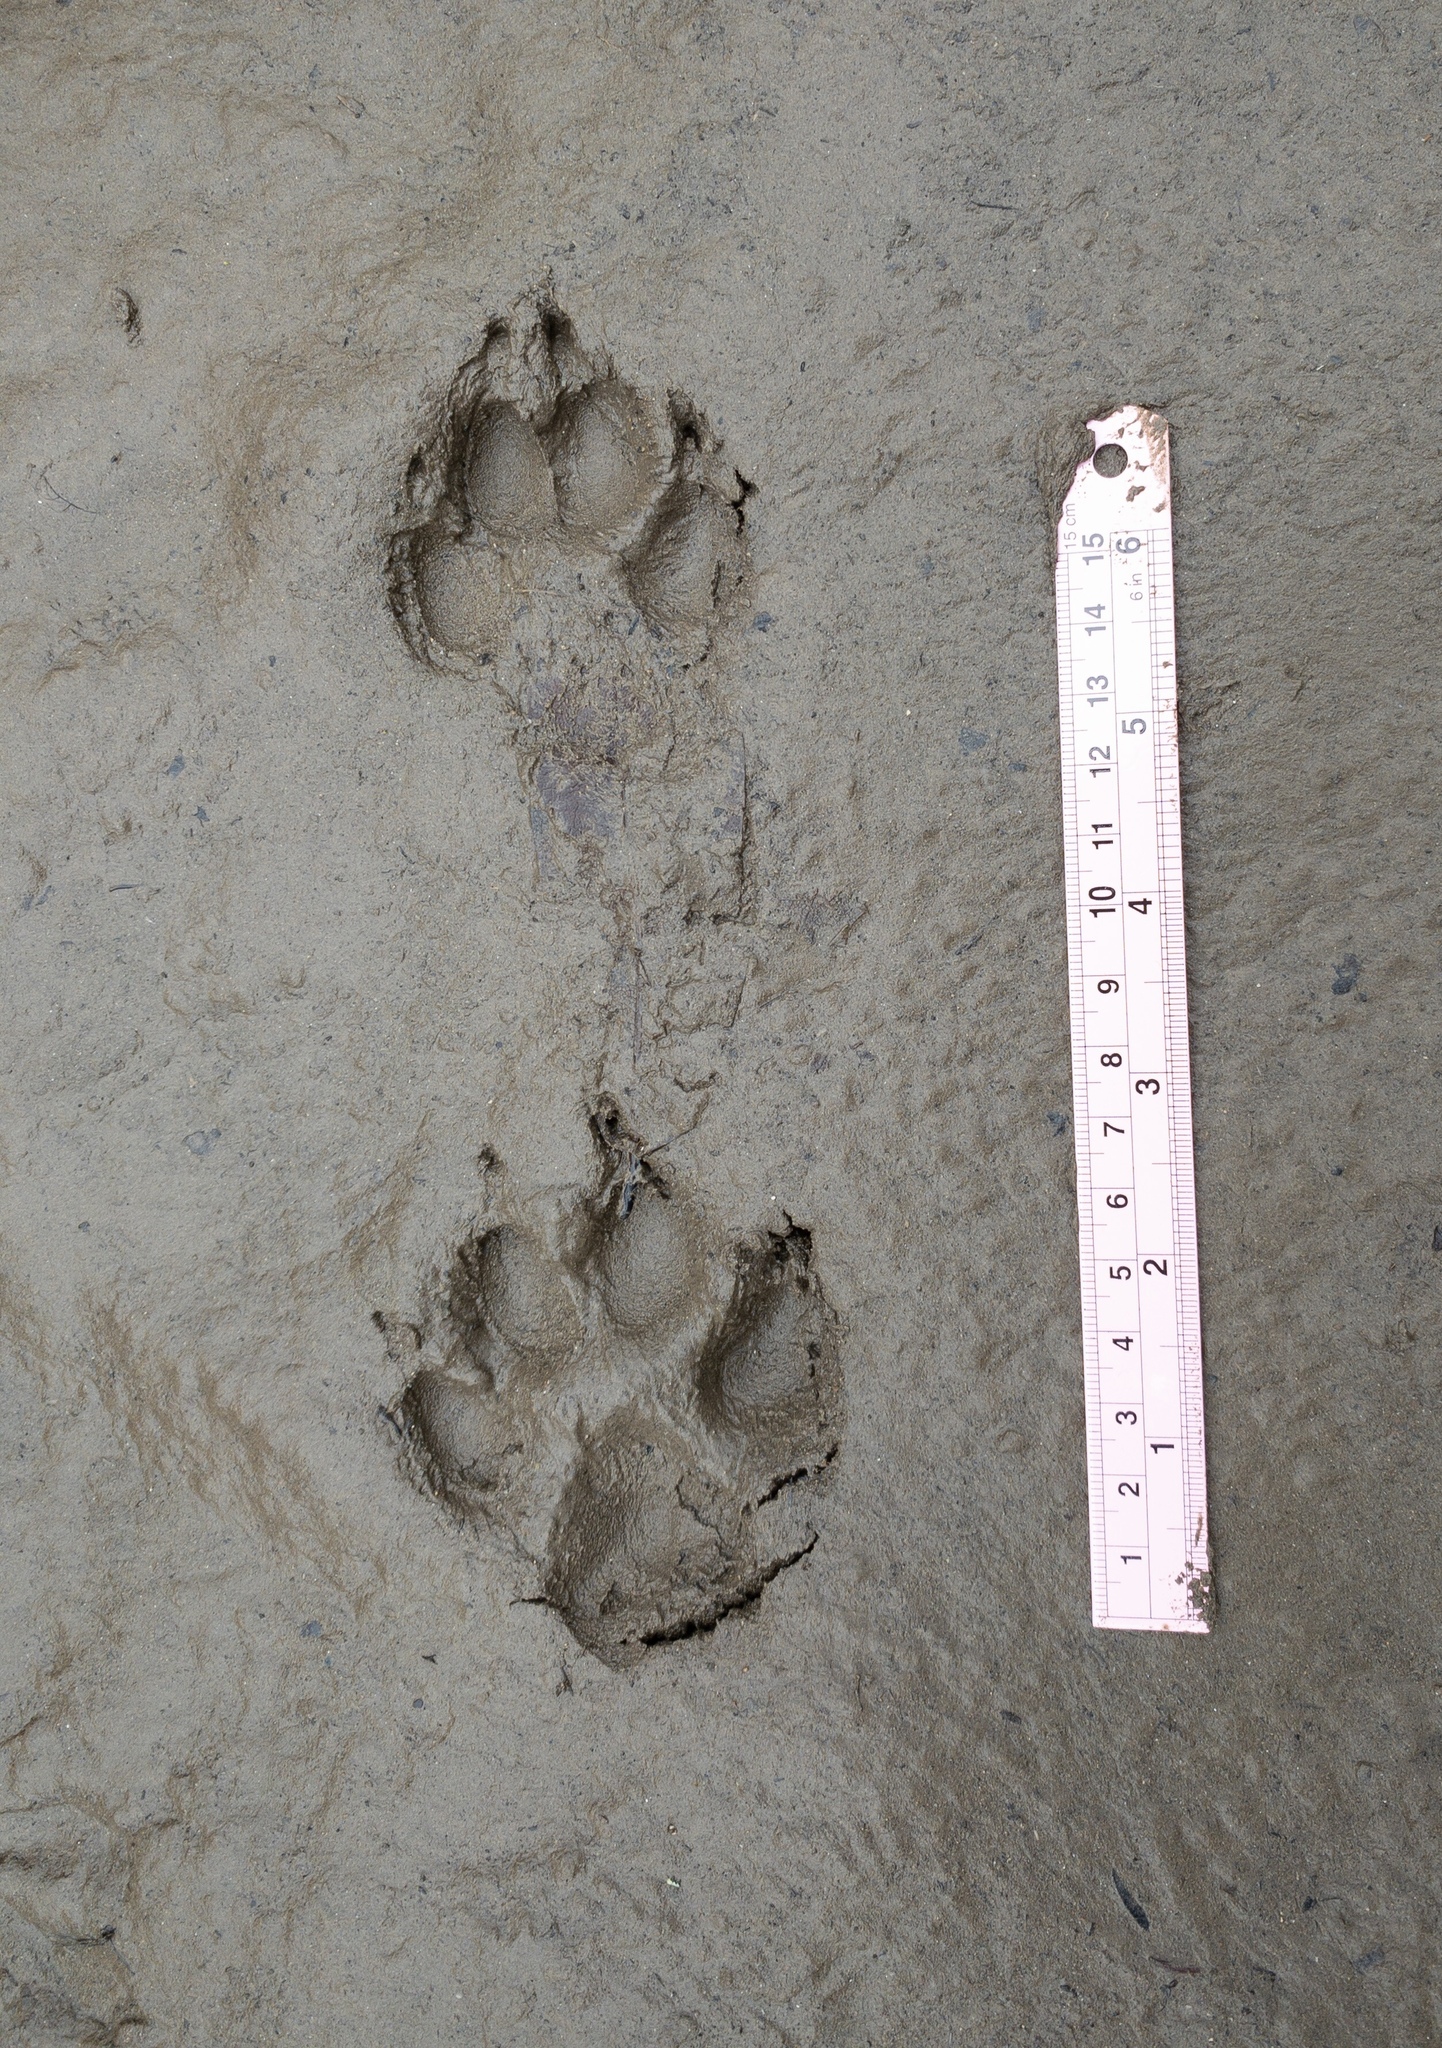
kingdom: Animalia
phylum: Chordata
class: Mammalia
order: Carnivora
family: Canidae
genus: Canis
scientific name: Canis latrans
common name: Coyote
